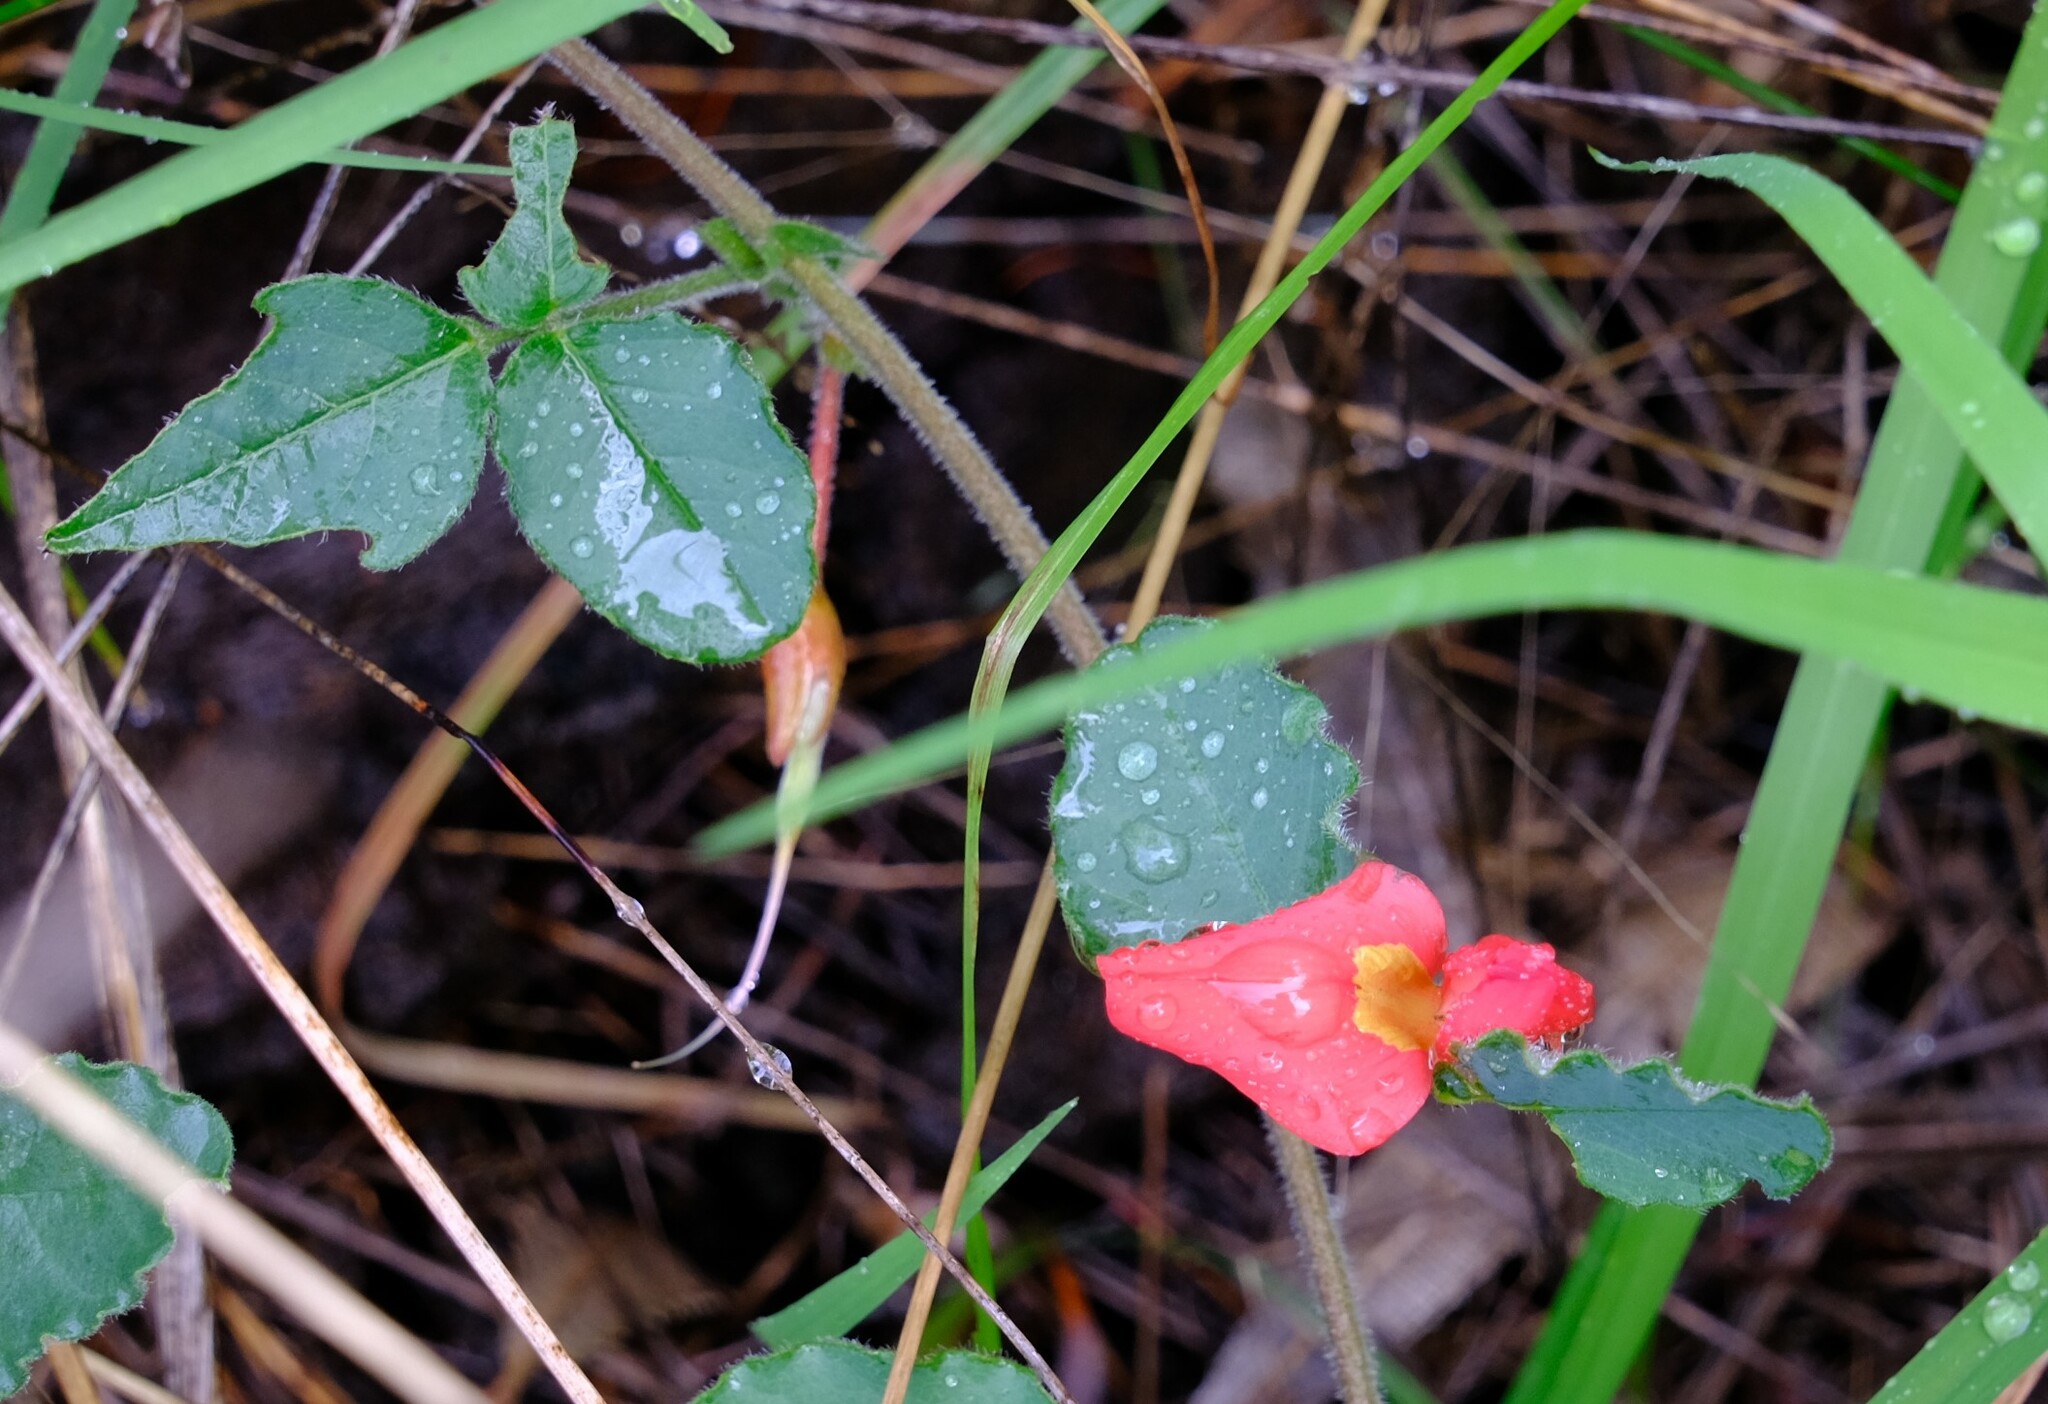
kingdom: Plantae
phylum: Tracheophyta
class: Magnoliopsida
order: Fabales
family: Fabaceae
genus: Kennedia
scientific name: Kennedia prostrata
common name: Running-postman
